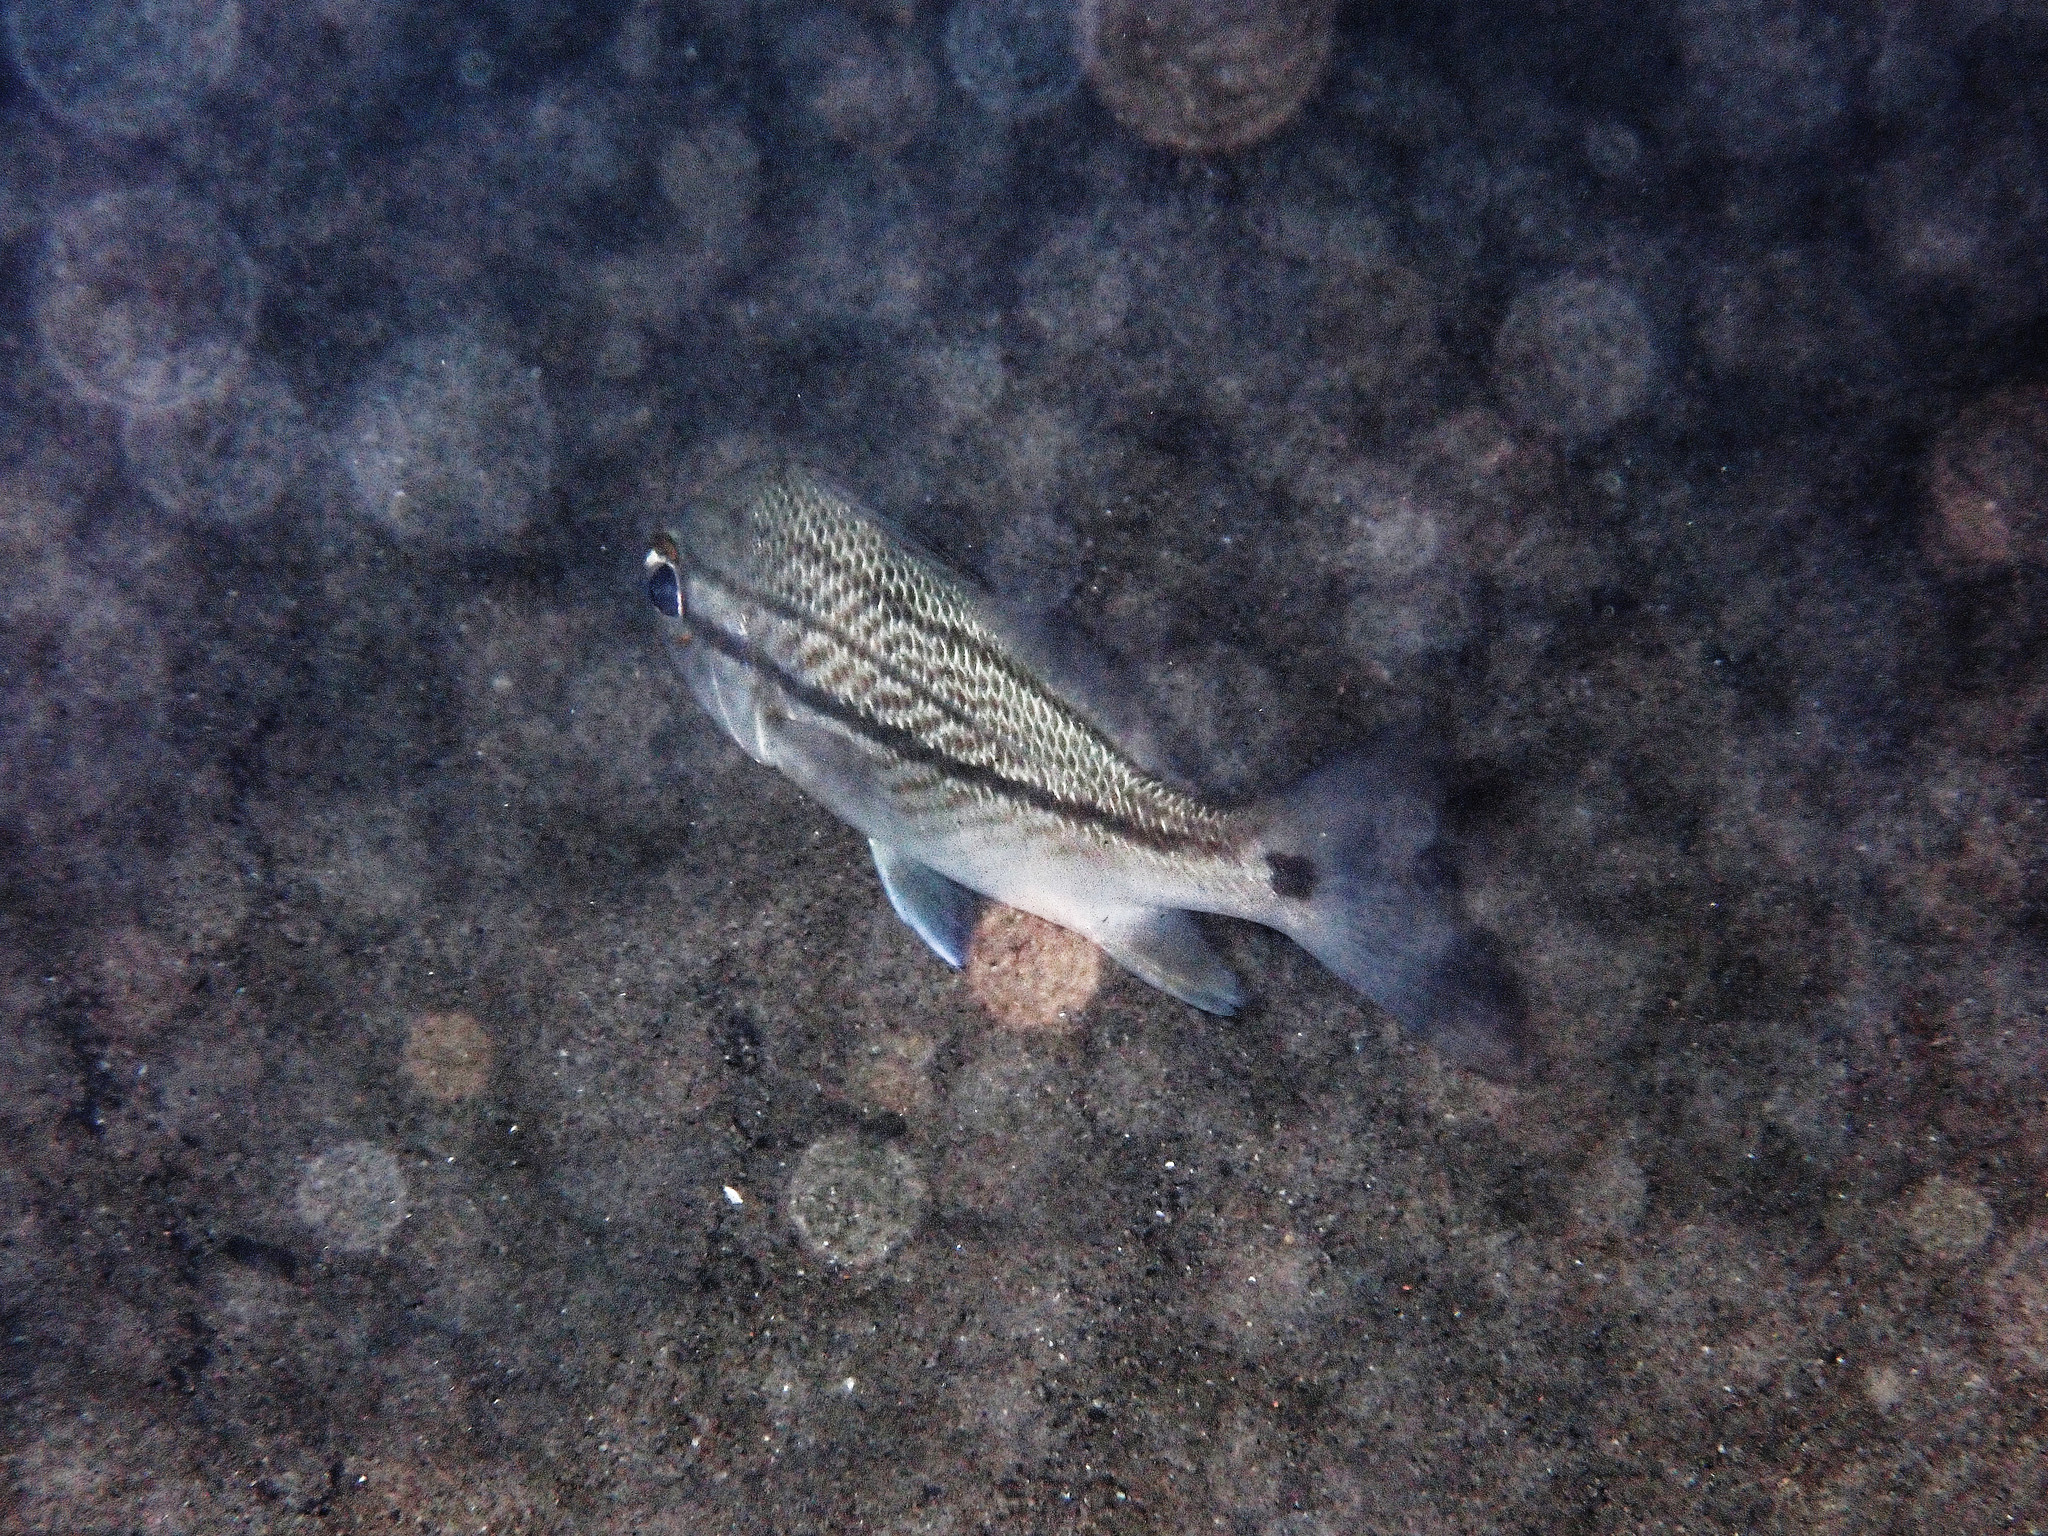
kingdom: Animalia
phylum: Chordata
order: Perciformes
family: Haemulidae
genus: Haemulon
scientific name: Haemulon parra
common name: Sailor's choice
